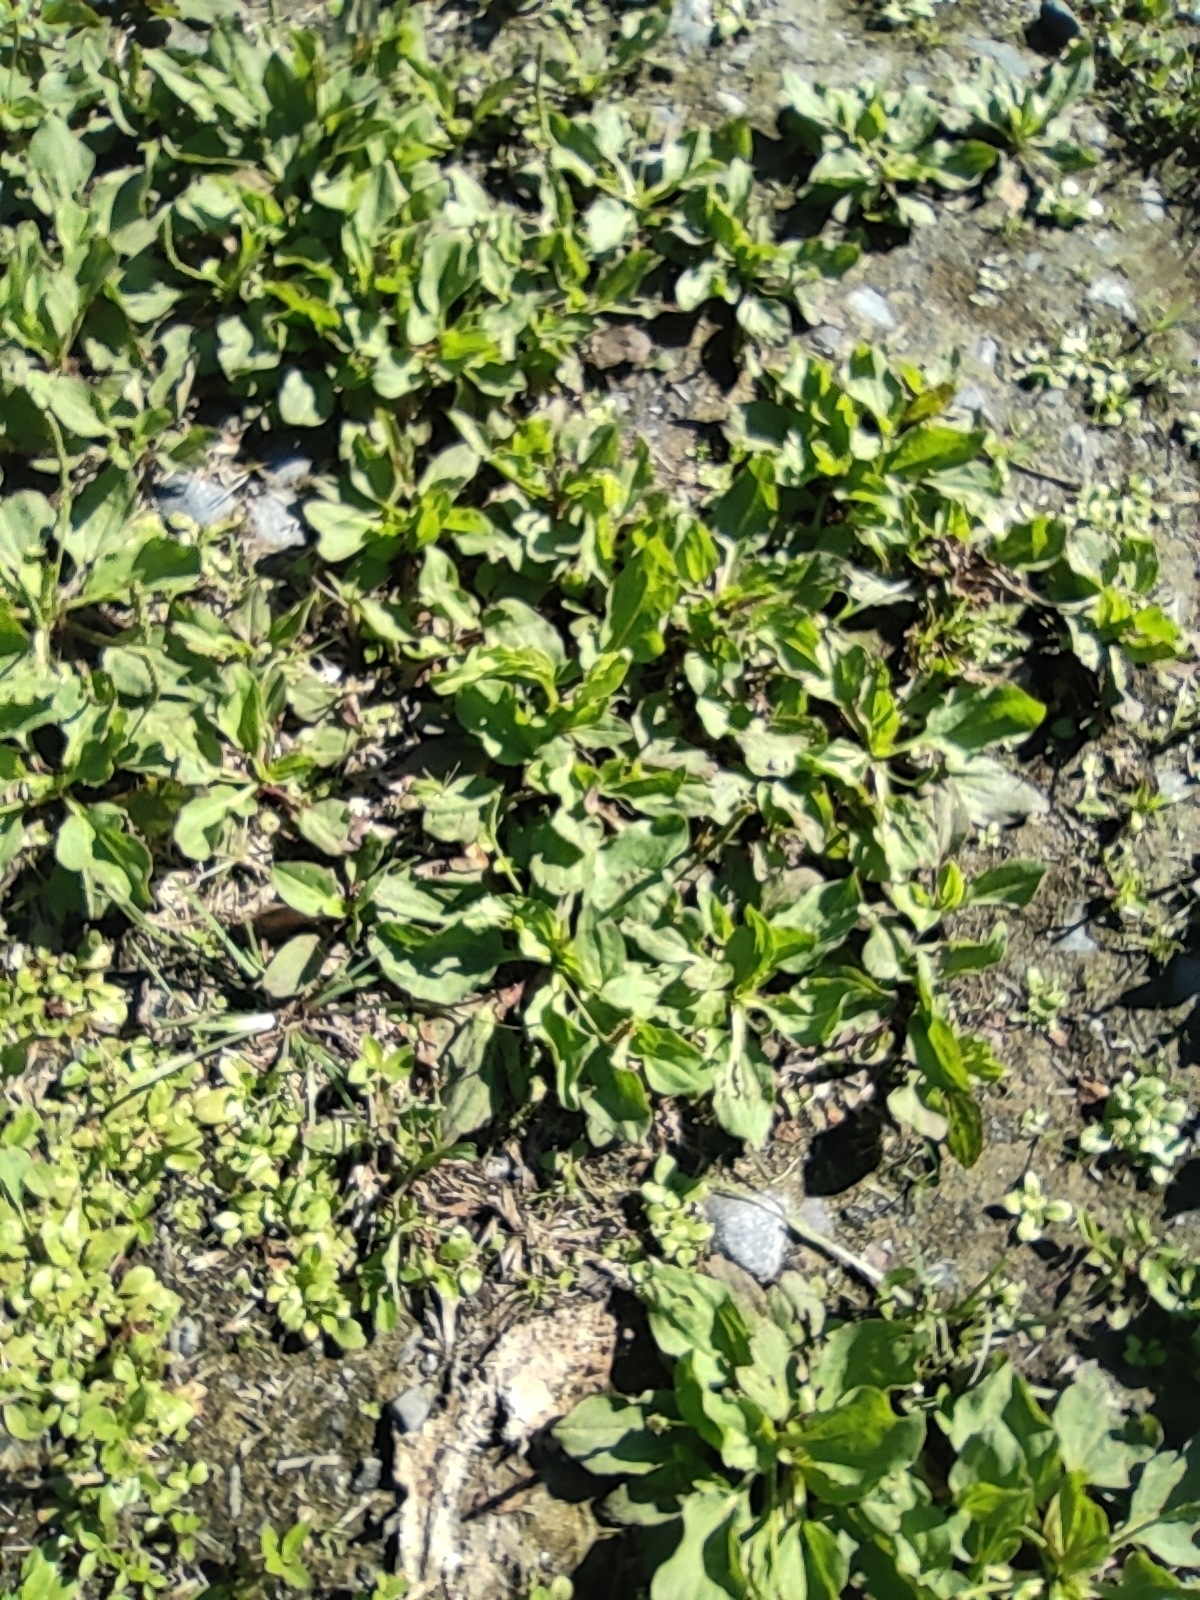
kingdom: Plantae
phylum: Tracheophyta
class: Magnoliopsida
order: Lamiales
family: Plantaginaceae
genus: Plantago
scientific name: Plantago major
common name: Common plantain
